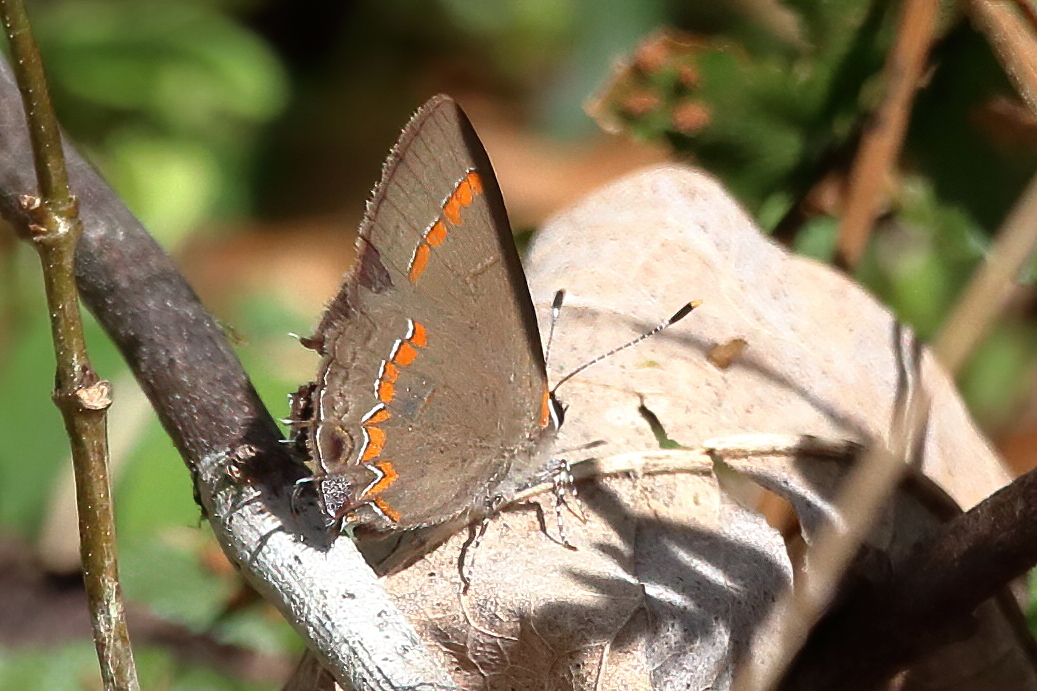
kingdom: Animalia
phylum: Arthropoda
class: Insecta
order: Lepidoptera
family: Lycaenidae
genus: Calycopis
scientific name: Calycopis cecrops
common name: Red-banded hairstreak
